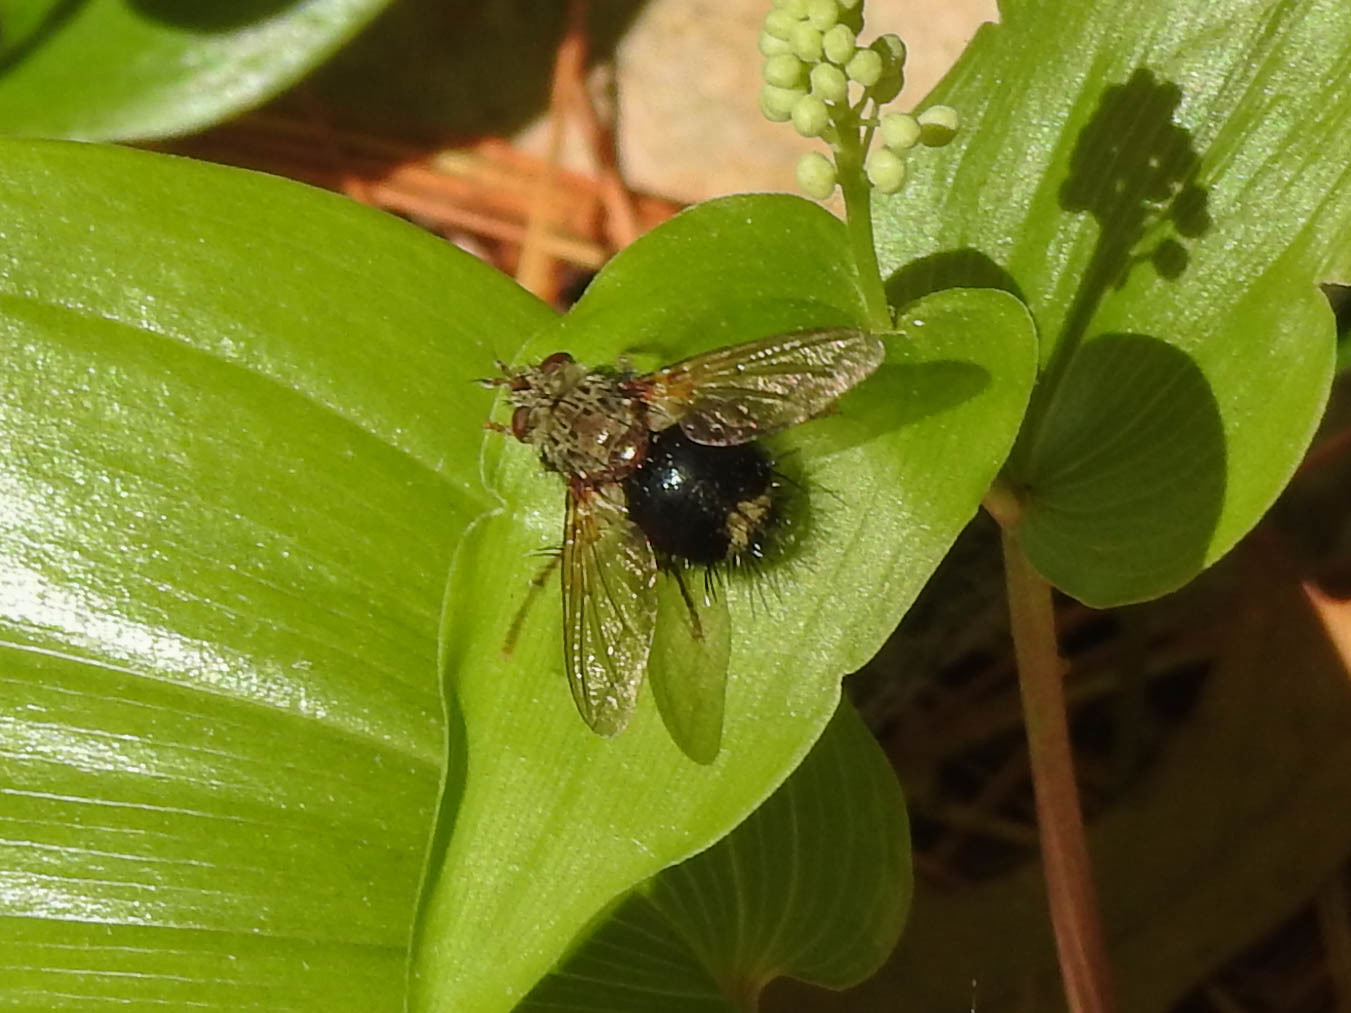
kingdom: Animalia
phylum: Arthropoda
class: Insecta
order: Diptera
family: Tachinidae
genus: Epalpus
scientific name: Epalpus signifer
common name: Early tachinid fly
